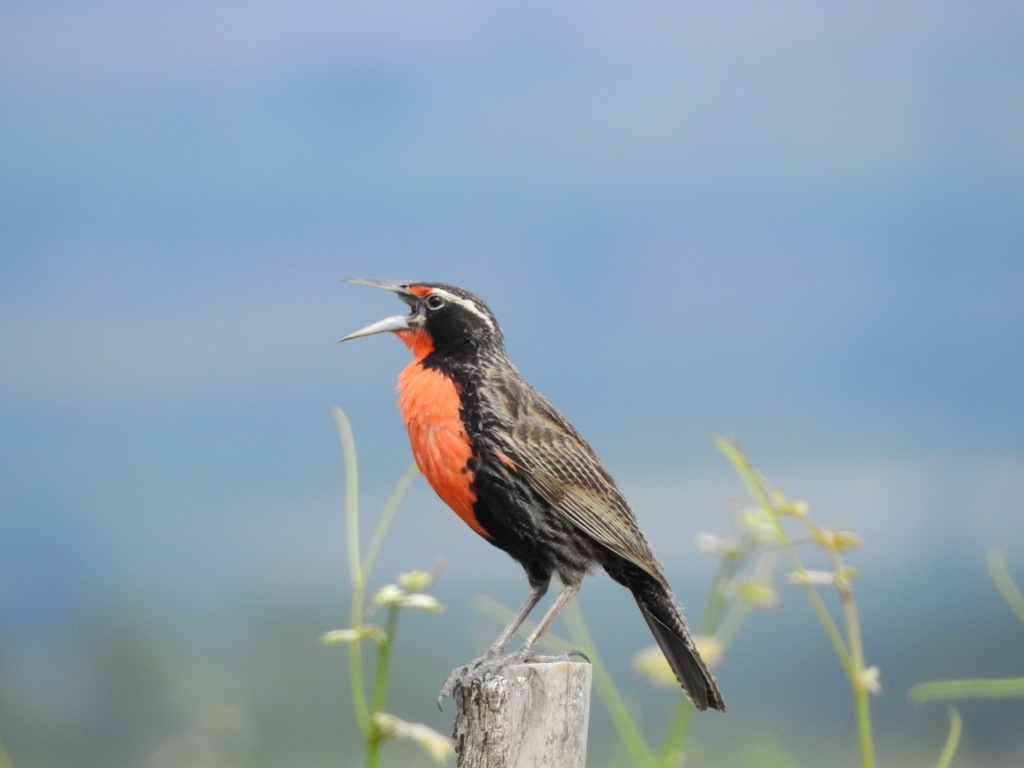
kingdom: Animalia
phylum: Chordata
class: Aves
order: Passeriformes
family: Icteridae
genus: Sturnella
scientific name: Sturnella loyca
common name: Long-tailed meadowlark
